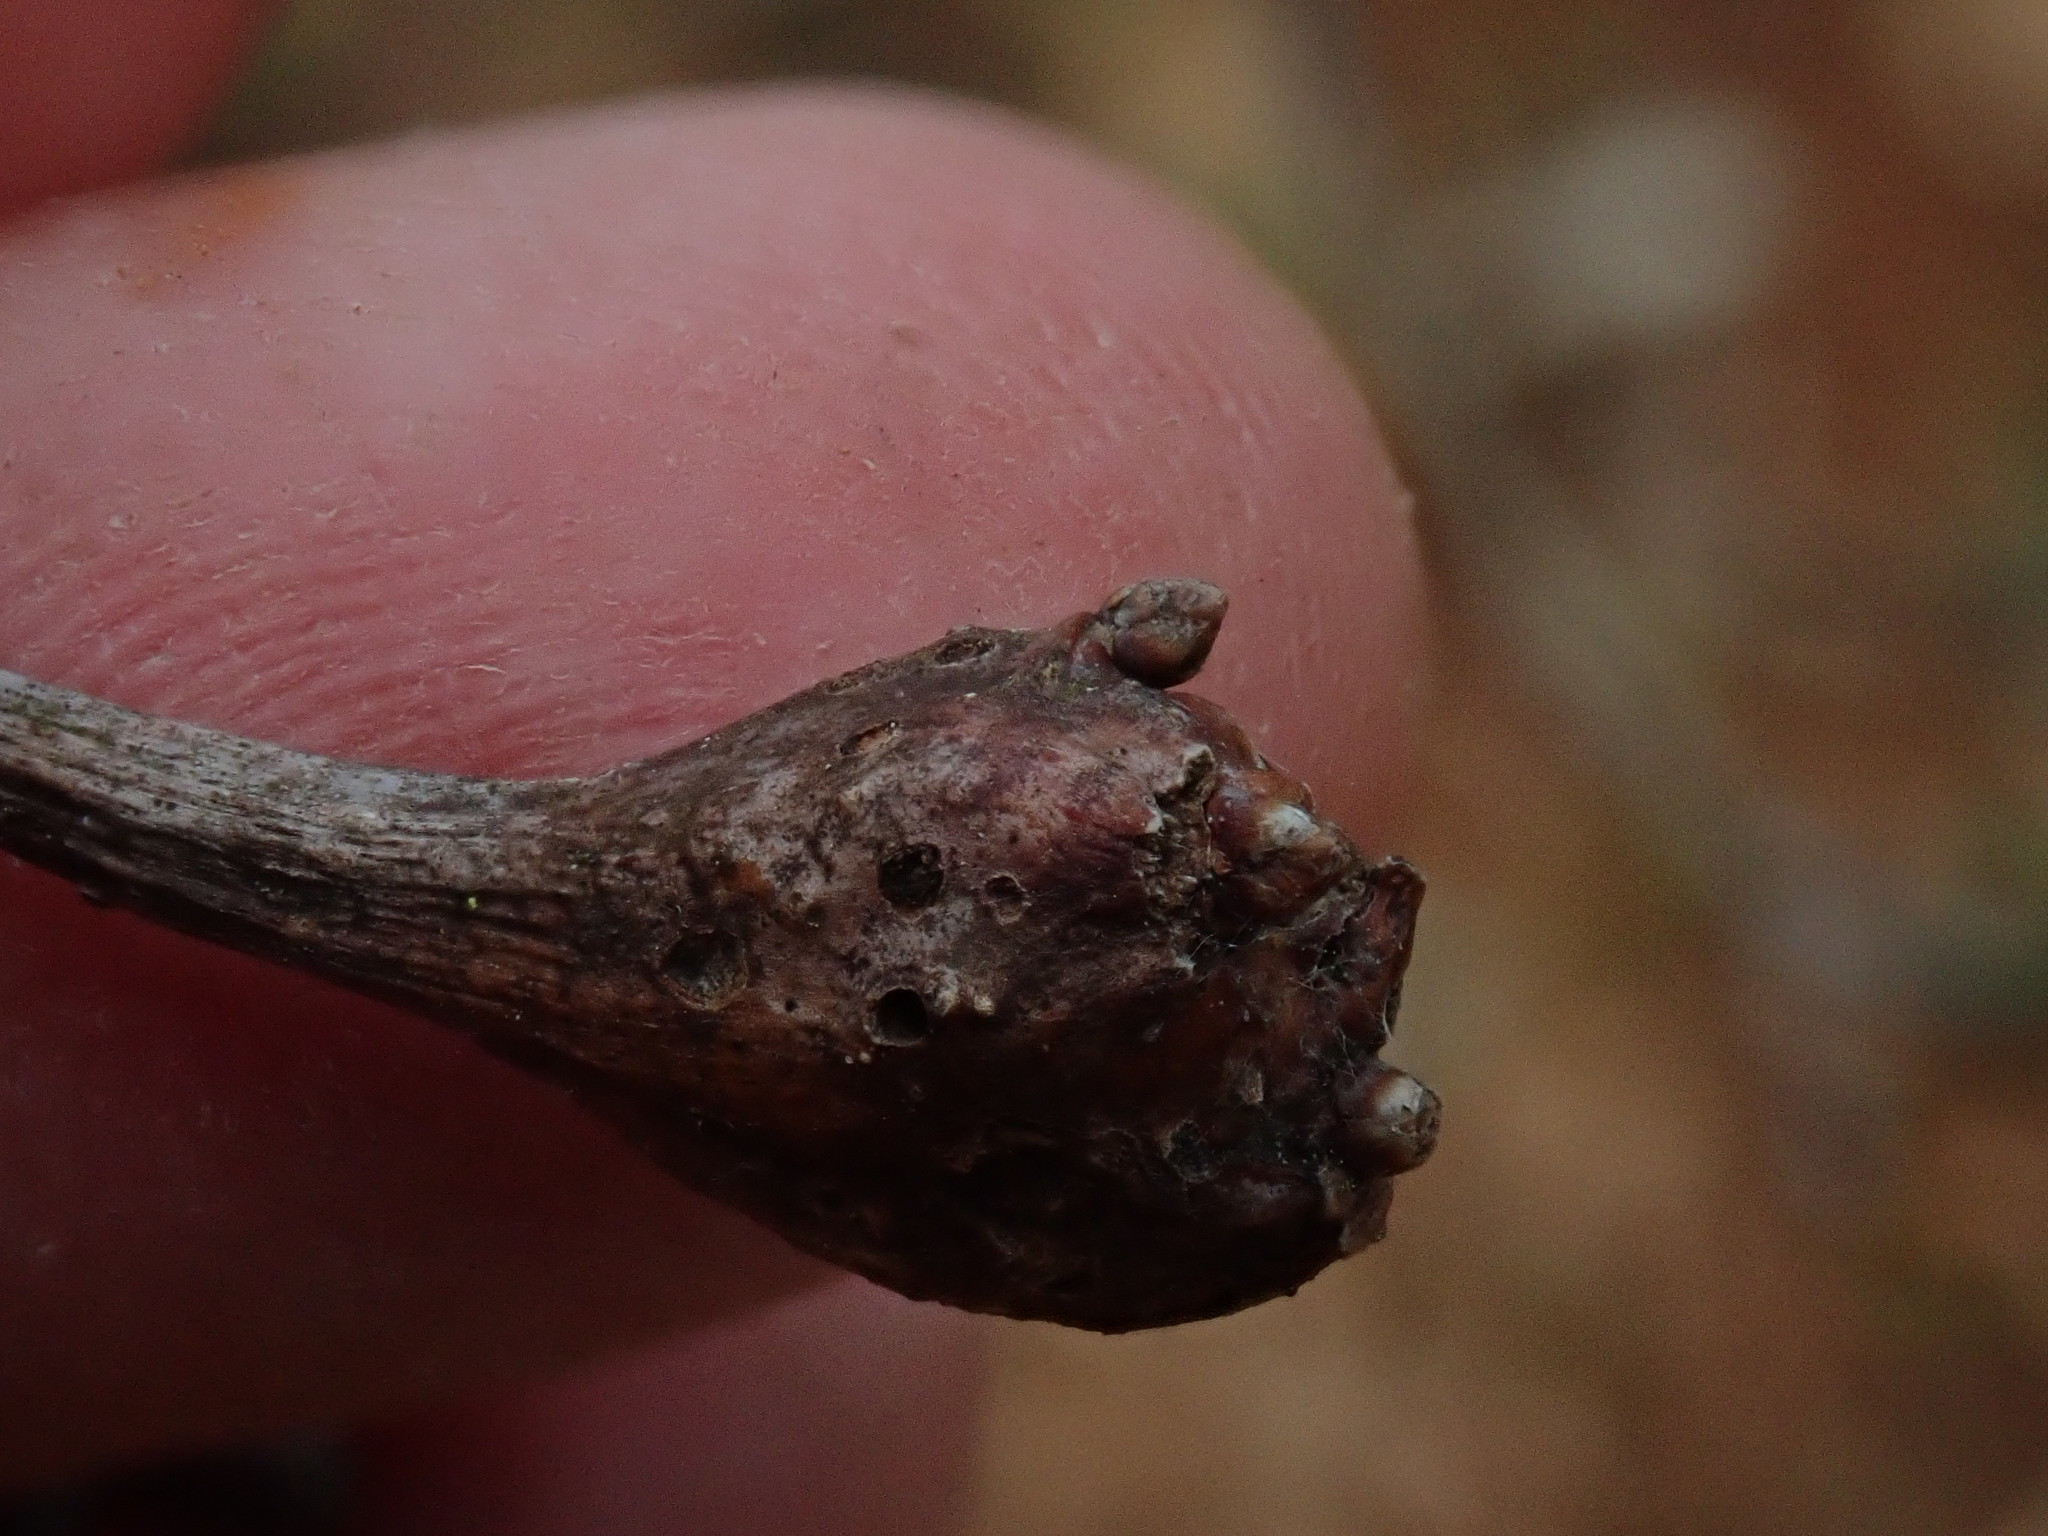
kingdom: Animalia
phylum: Arthropoda
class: Insecta
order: Hymenoptera
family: Cynipidae
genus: Callirhytis
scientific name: Callirhytis clavula
